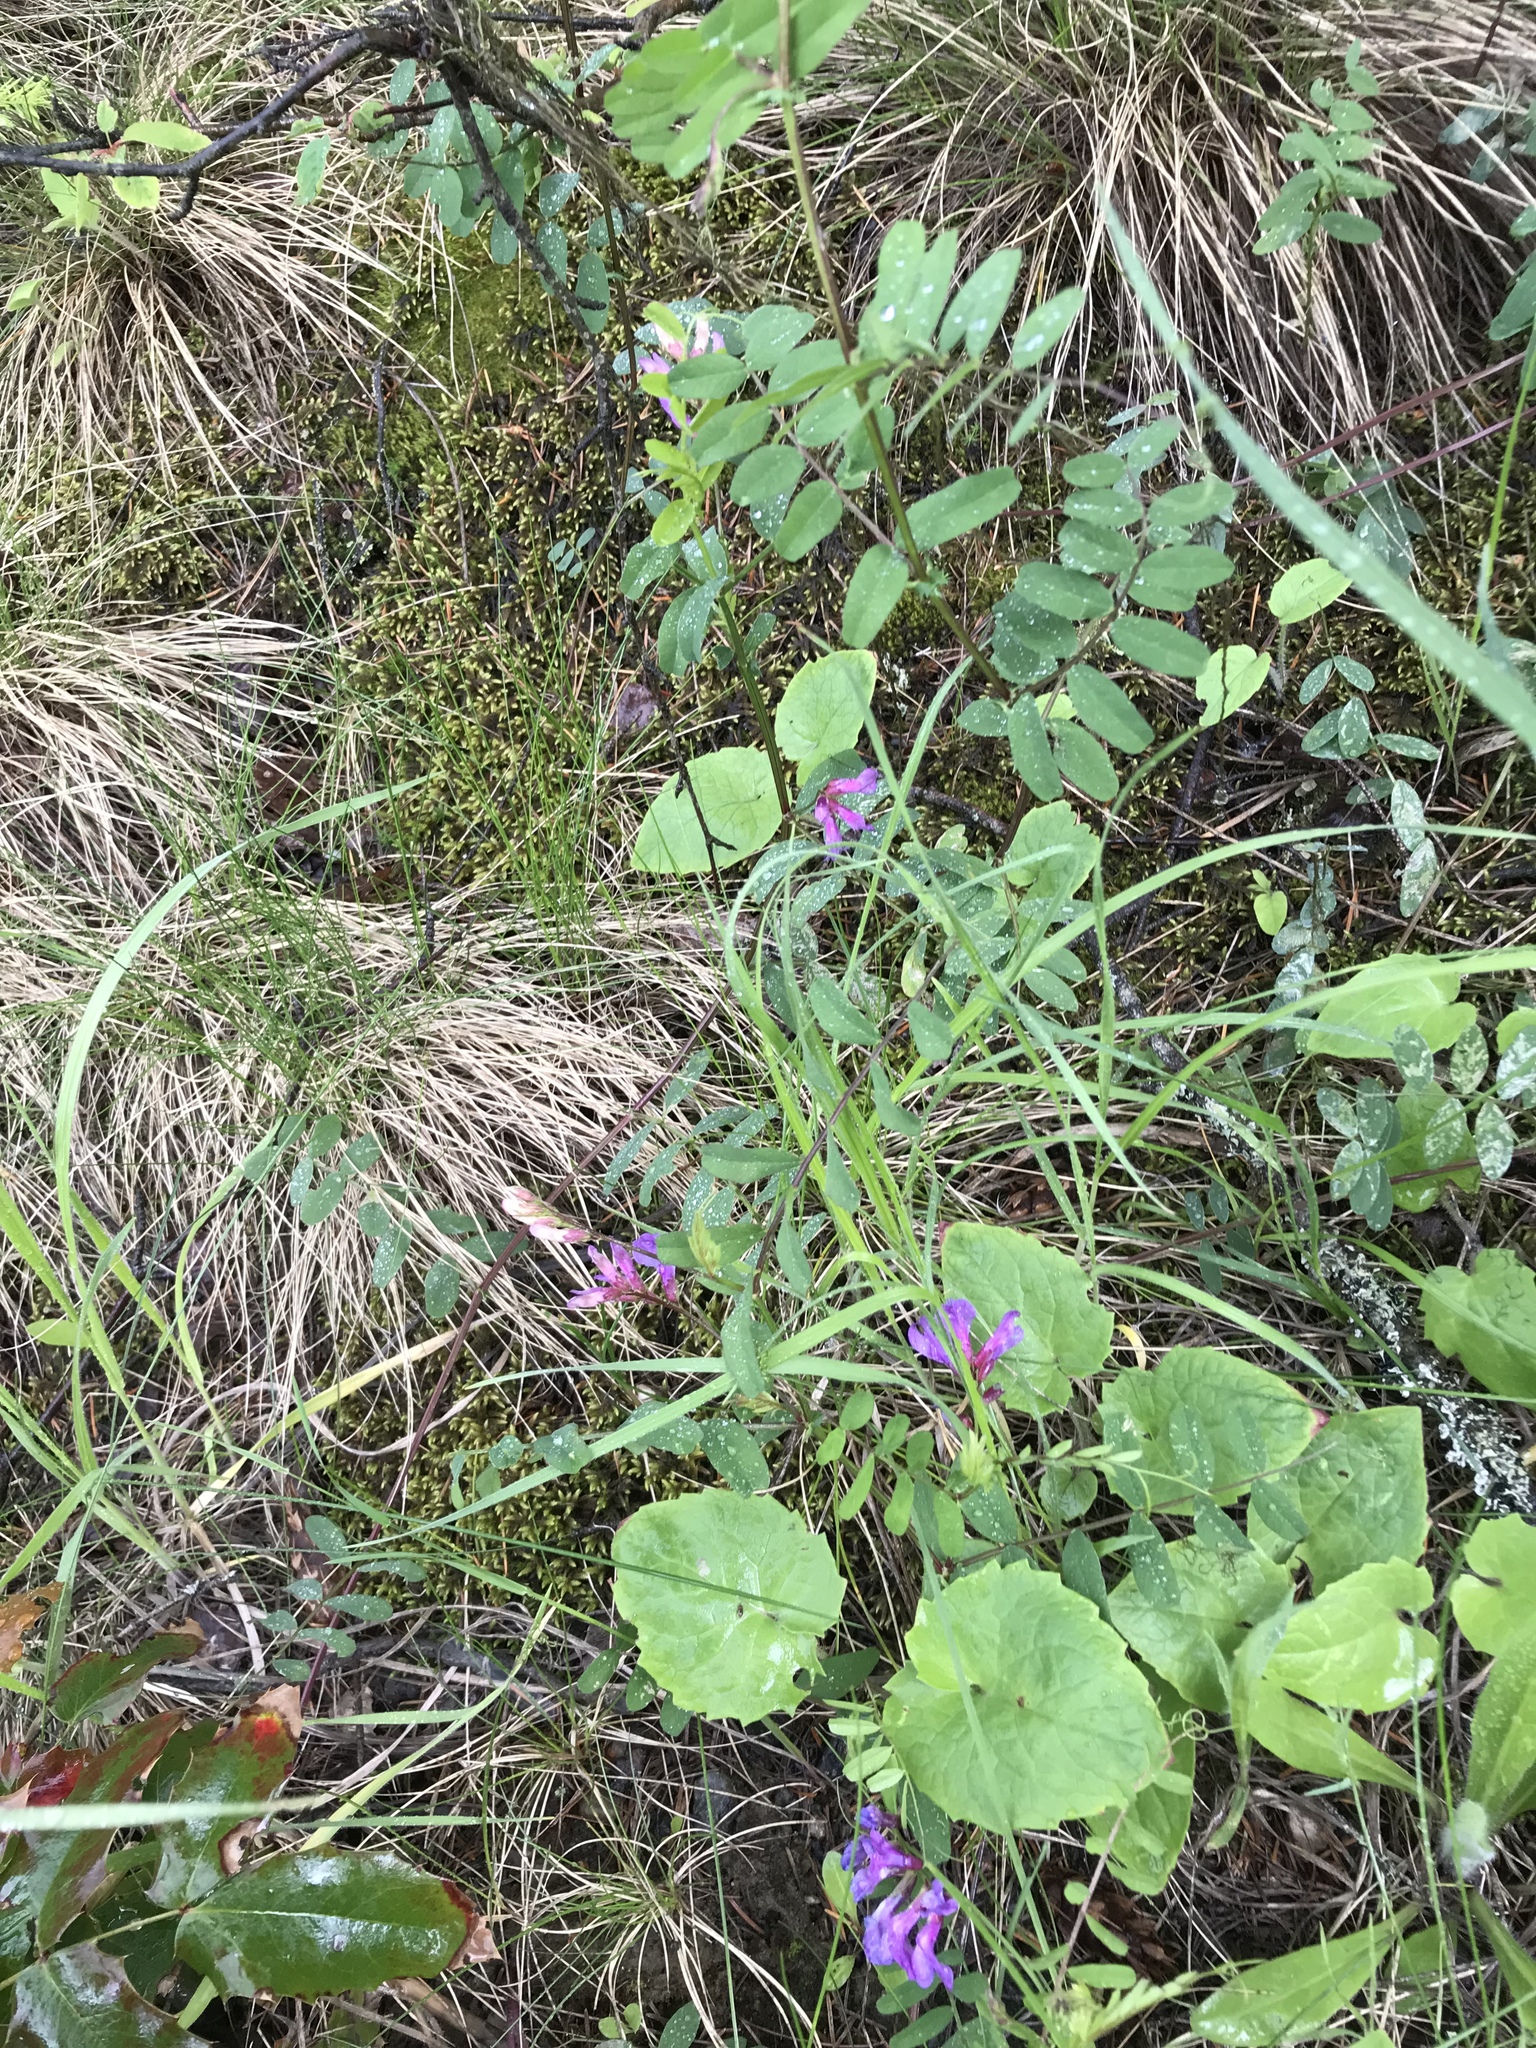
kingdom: Plantae
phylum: Tracheophyta
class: Magnoliopsida
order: Fabales
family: Fabaceae
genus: Vicia
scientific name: Vicia americana
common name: American vetch
